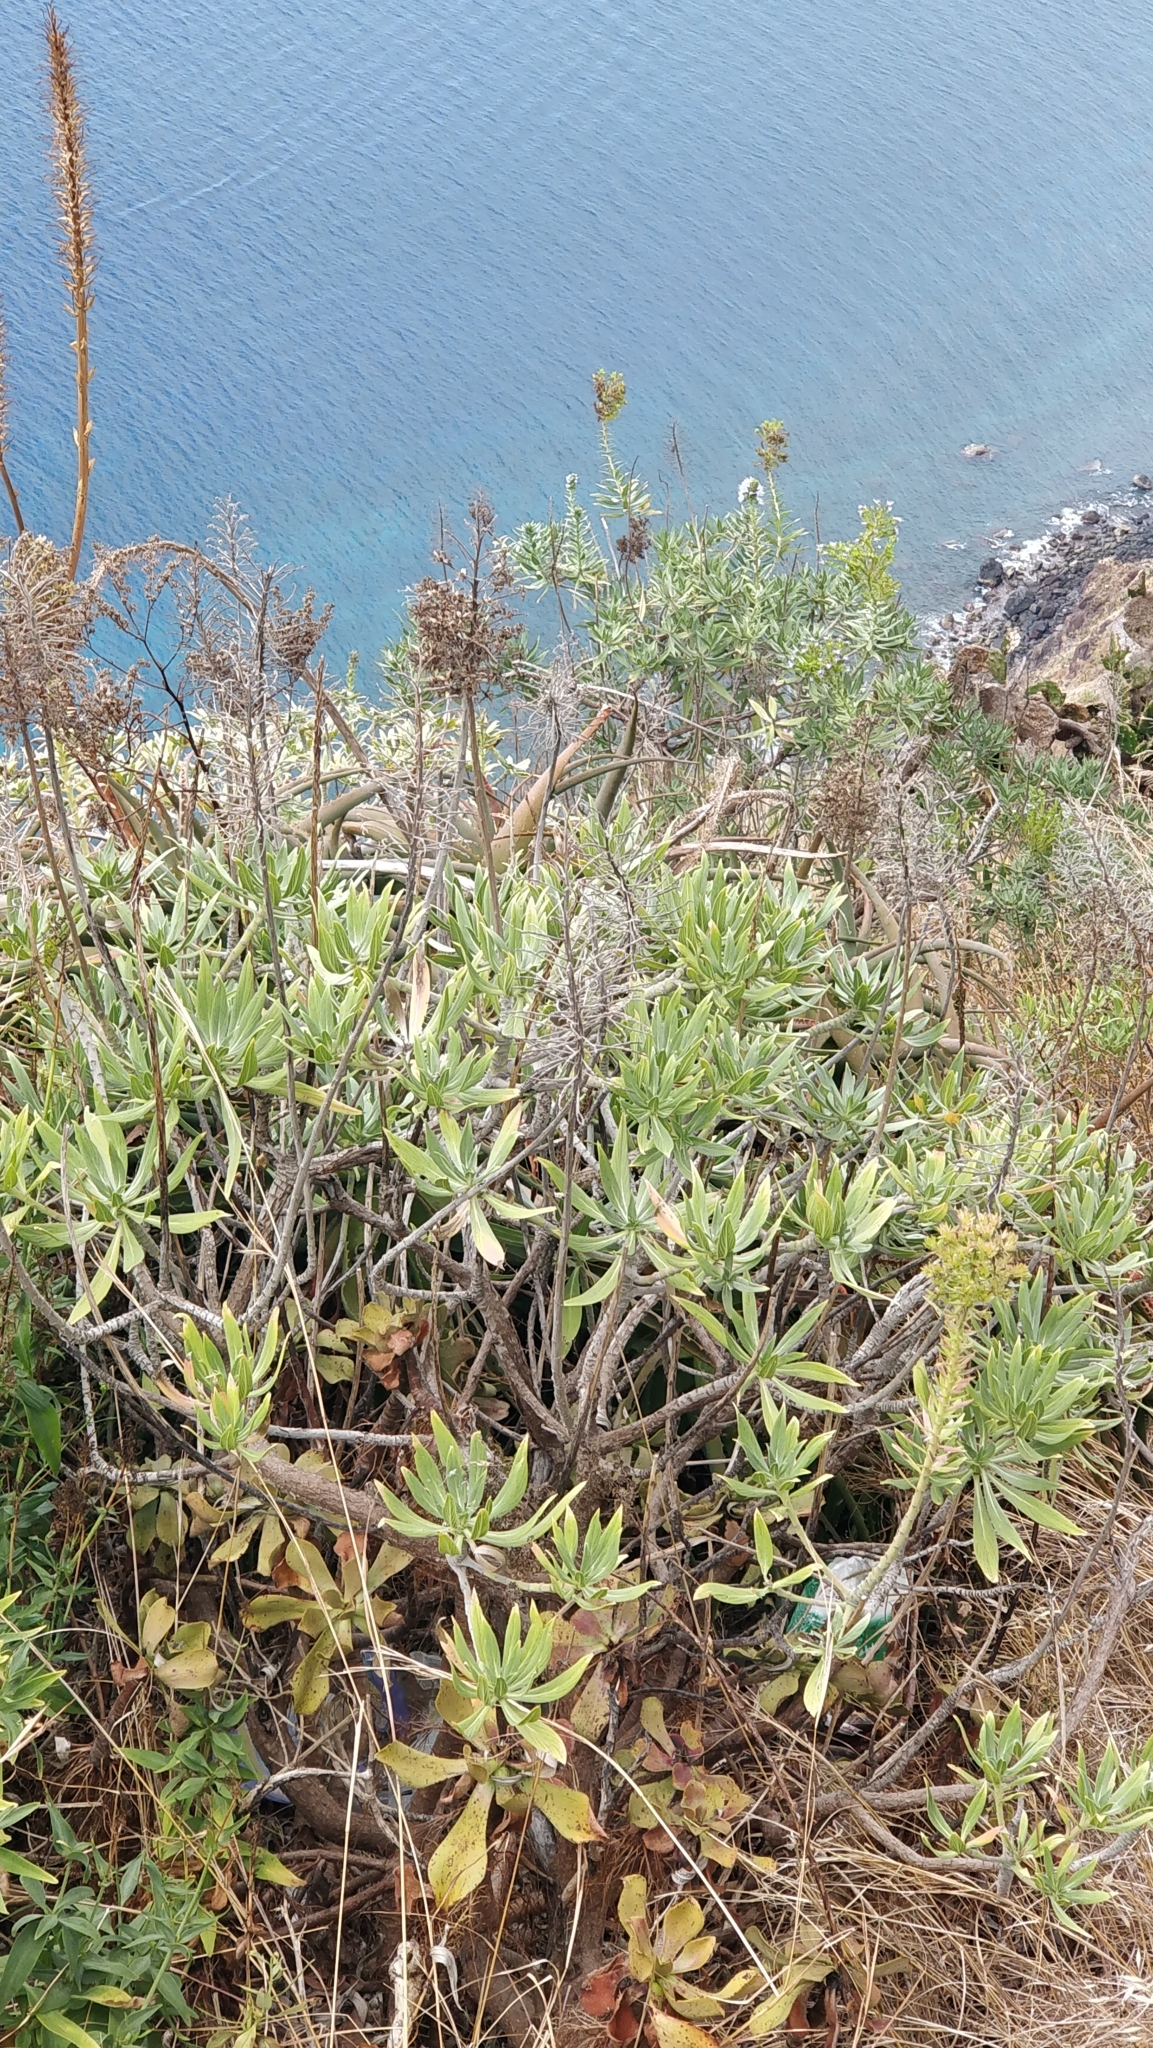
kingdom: Plantae
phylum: Tracheophyta
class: Magnoliopsida
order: Boraginales
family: Boraginaceae
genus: Echium
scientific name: Echium nervosum
